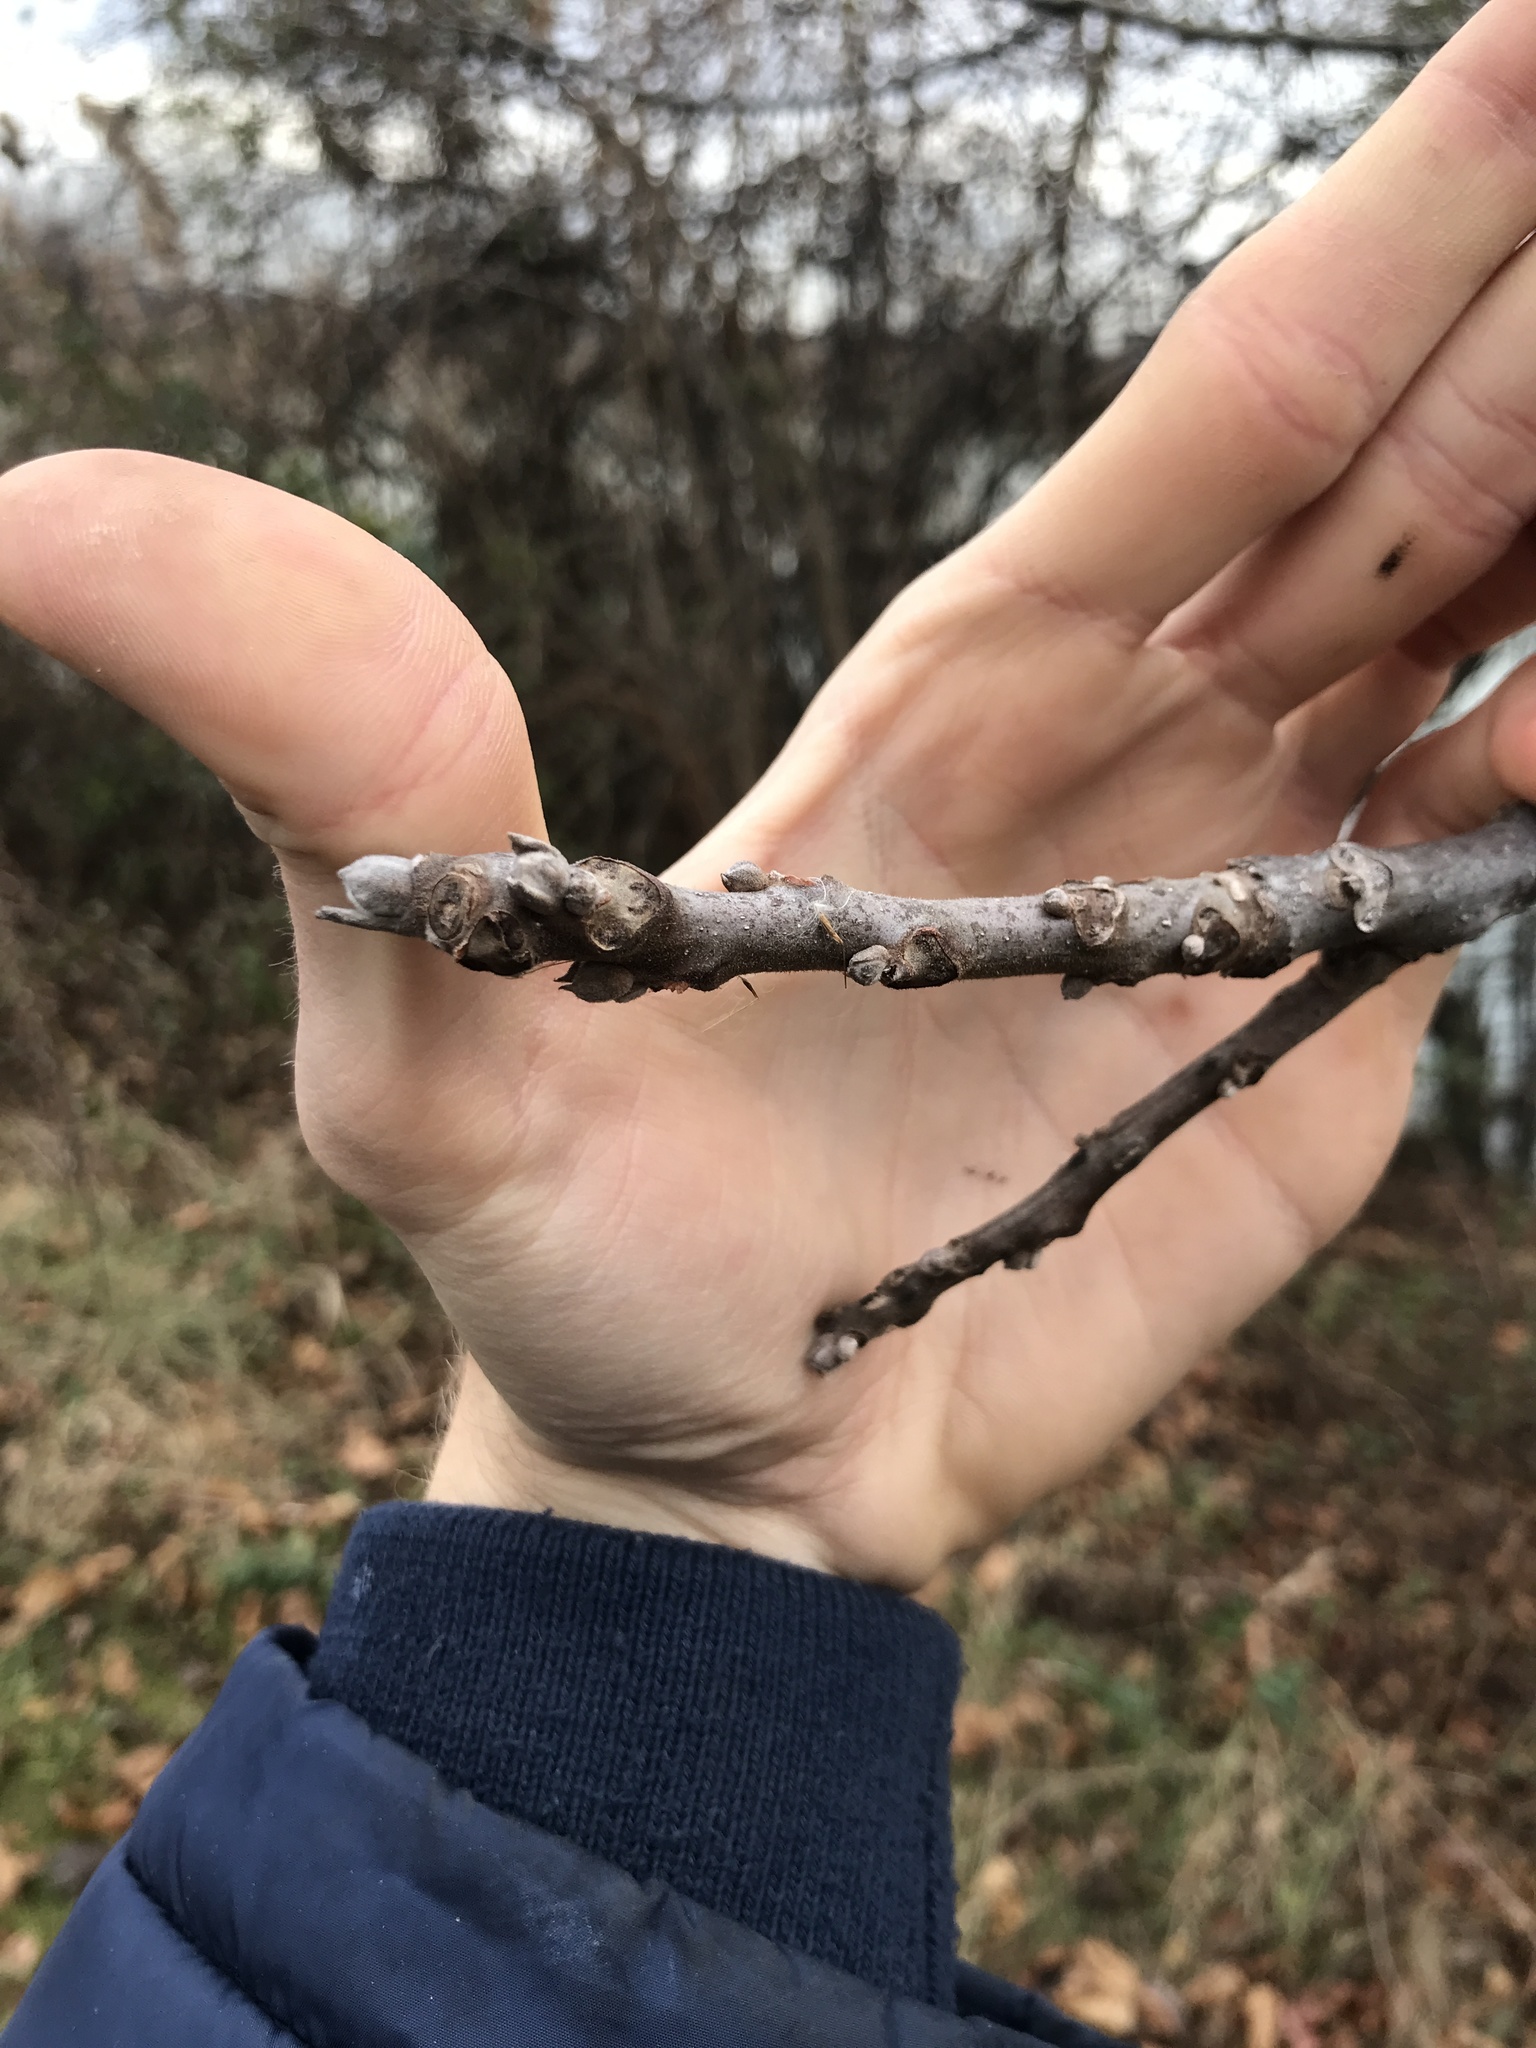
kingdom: Plantae
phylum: Tracheophyta
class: Magnoliopsida
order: Fagales
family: Juglandaceae
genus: Juglans
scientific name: Juglans nigra
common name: Black walnut
